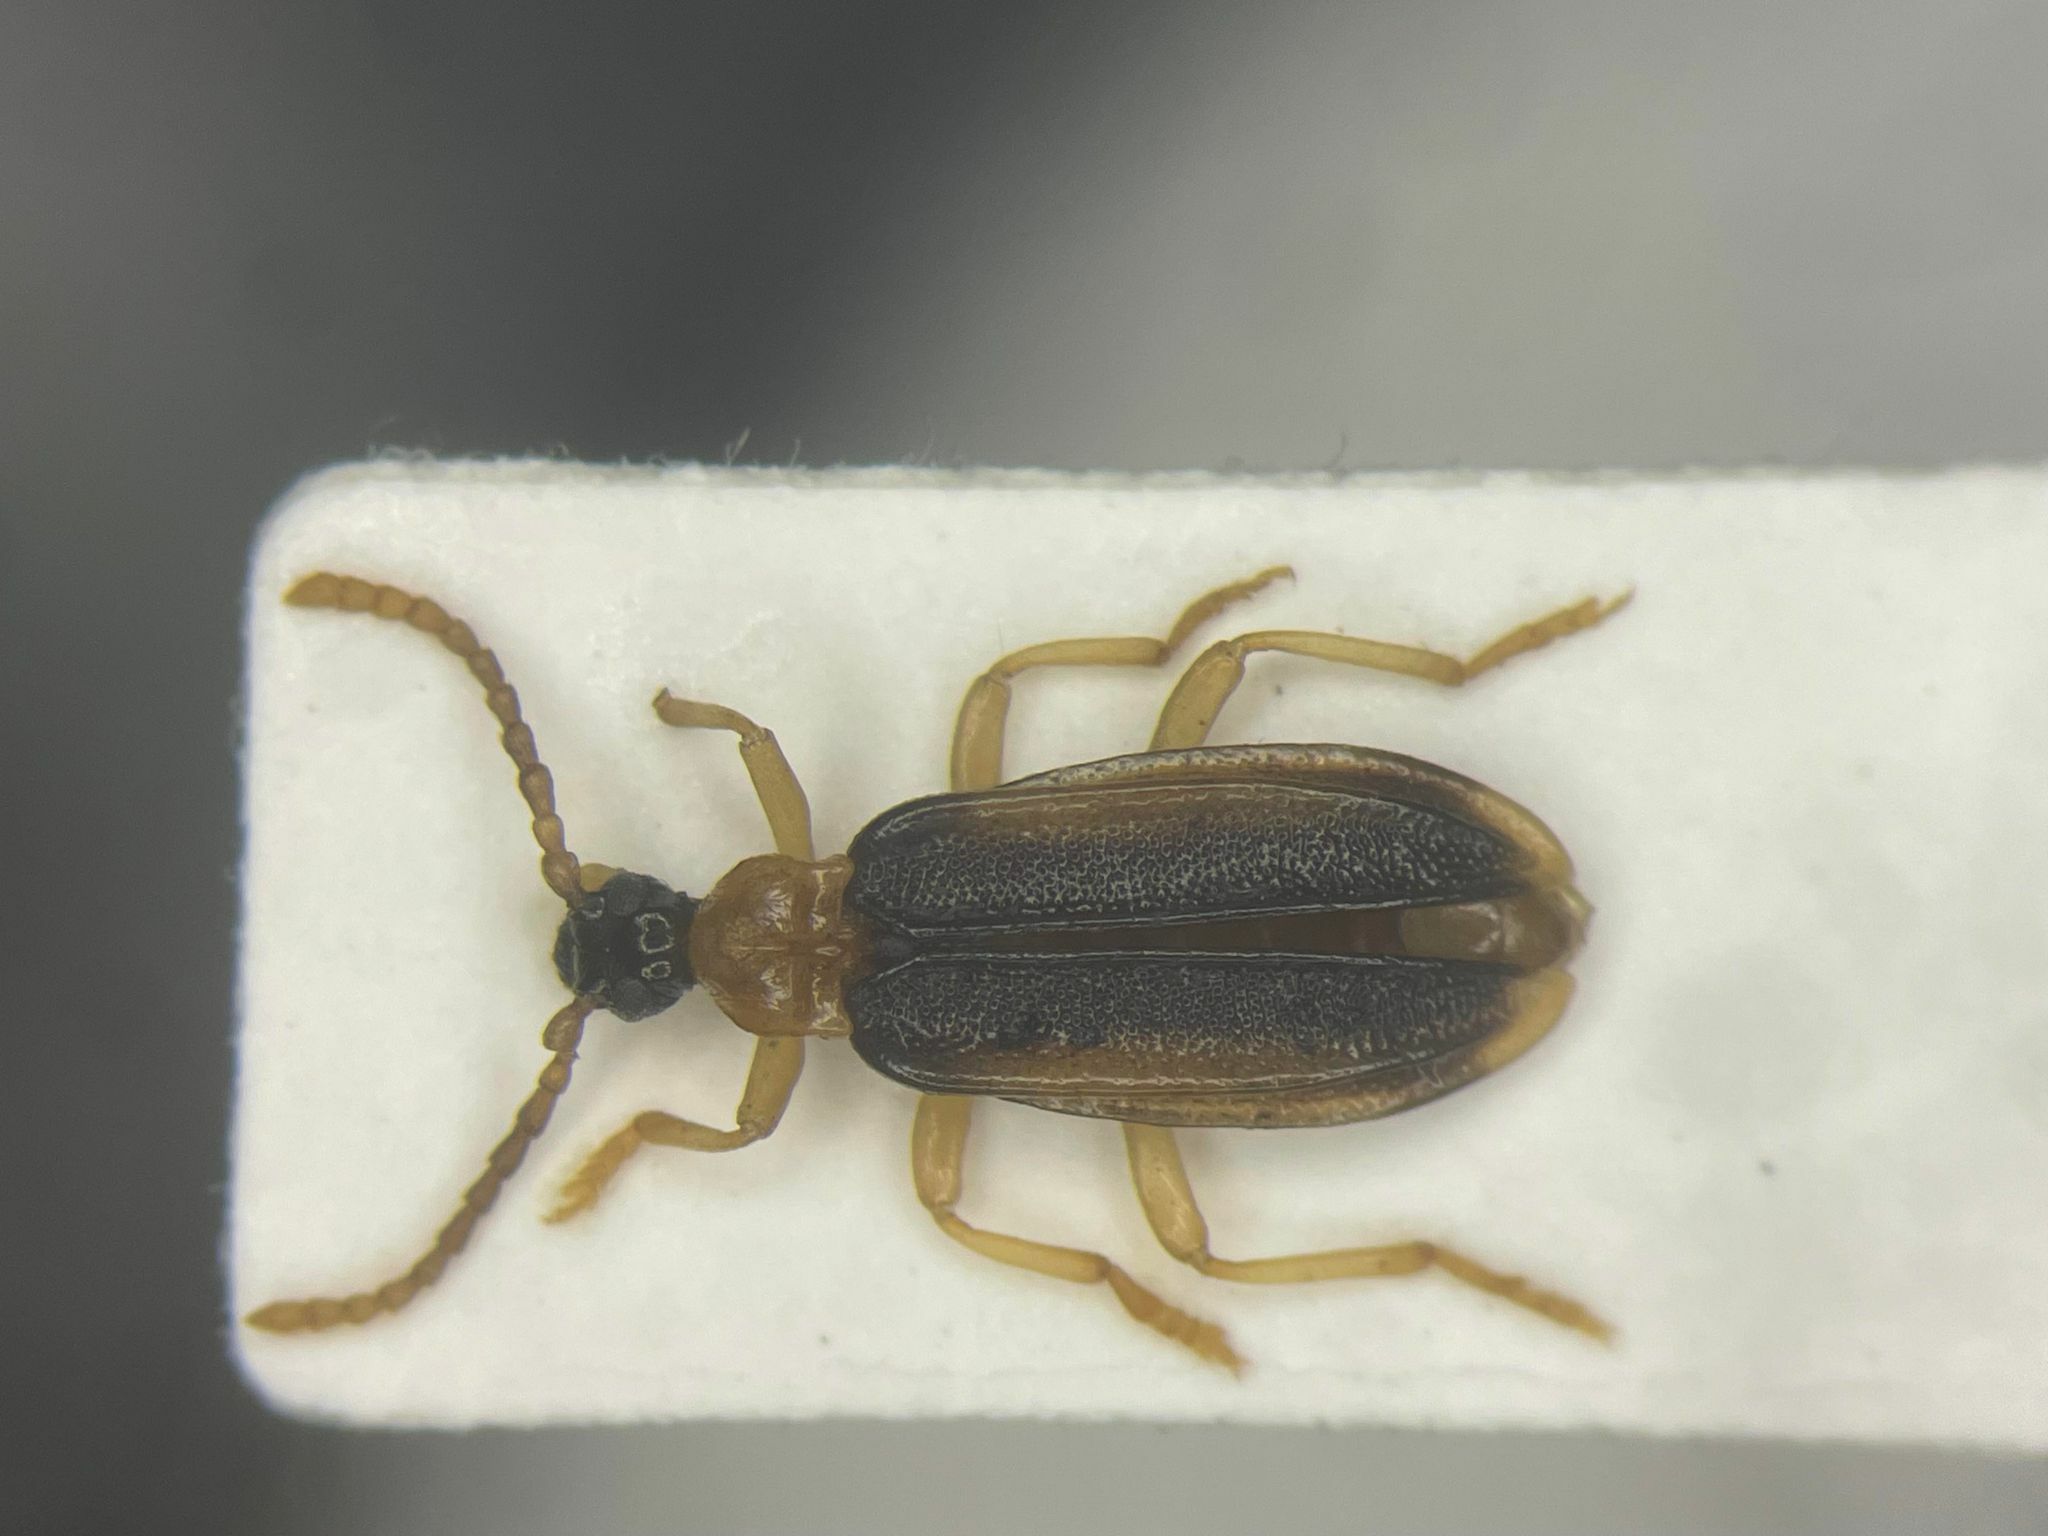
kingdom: Animalia
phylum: Arthropoda
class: Insecta
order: Coleoptera
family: Anthicidae
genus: Ischalia
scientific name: Ischalia costata
